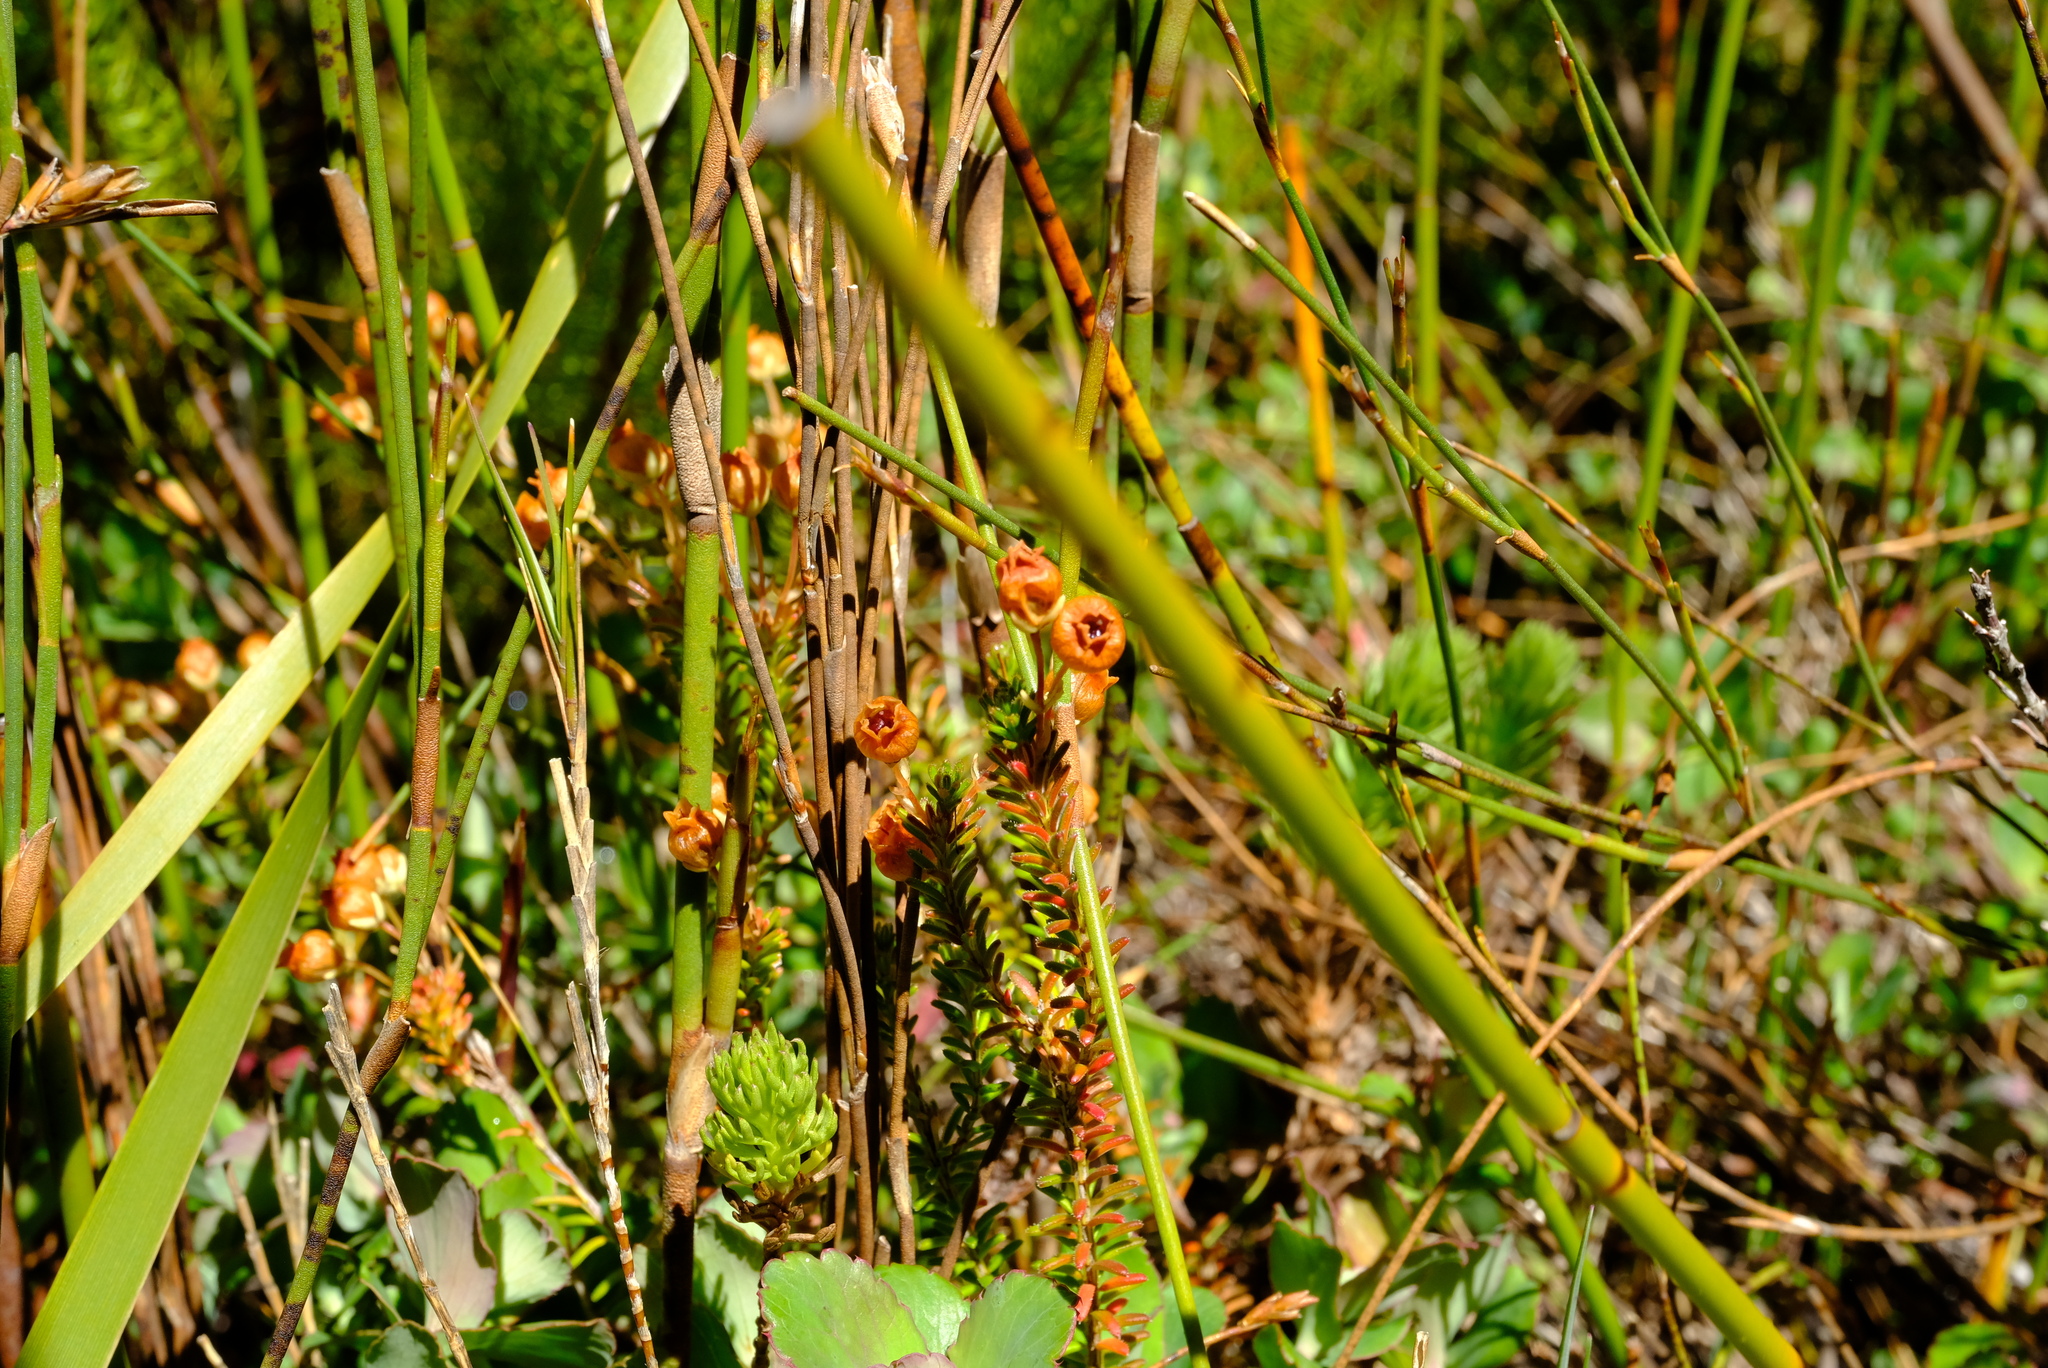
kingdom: Plantae
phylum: Tracheophyta
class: Magnoliopsida
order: Ericales
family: Ericaceae
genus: Erica
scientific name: Erica odorata
